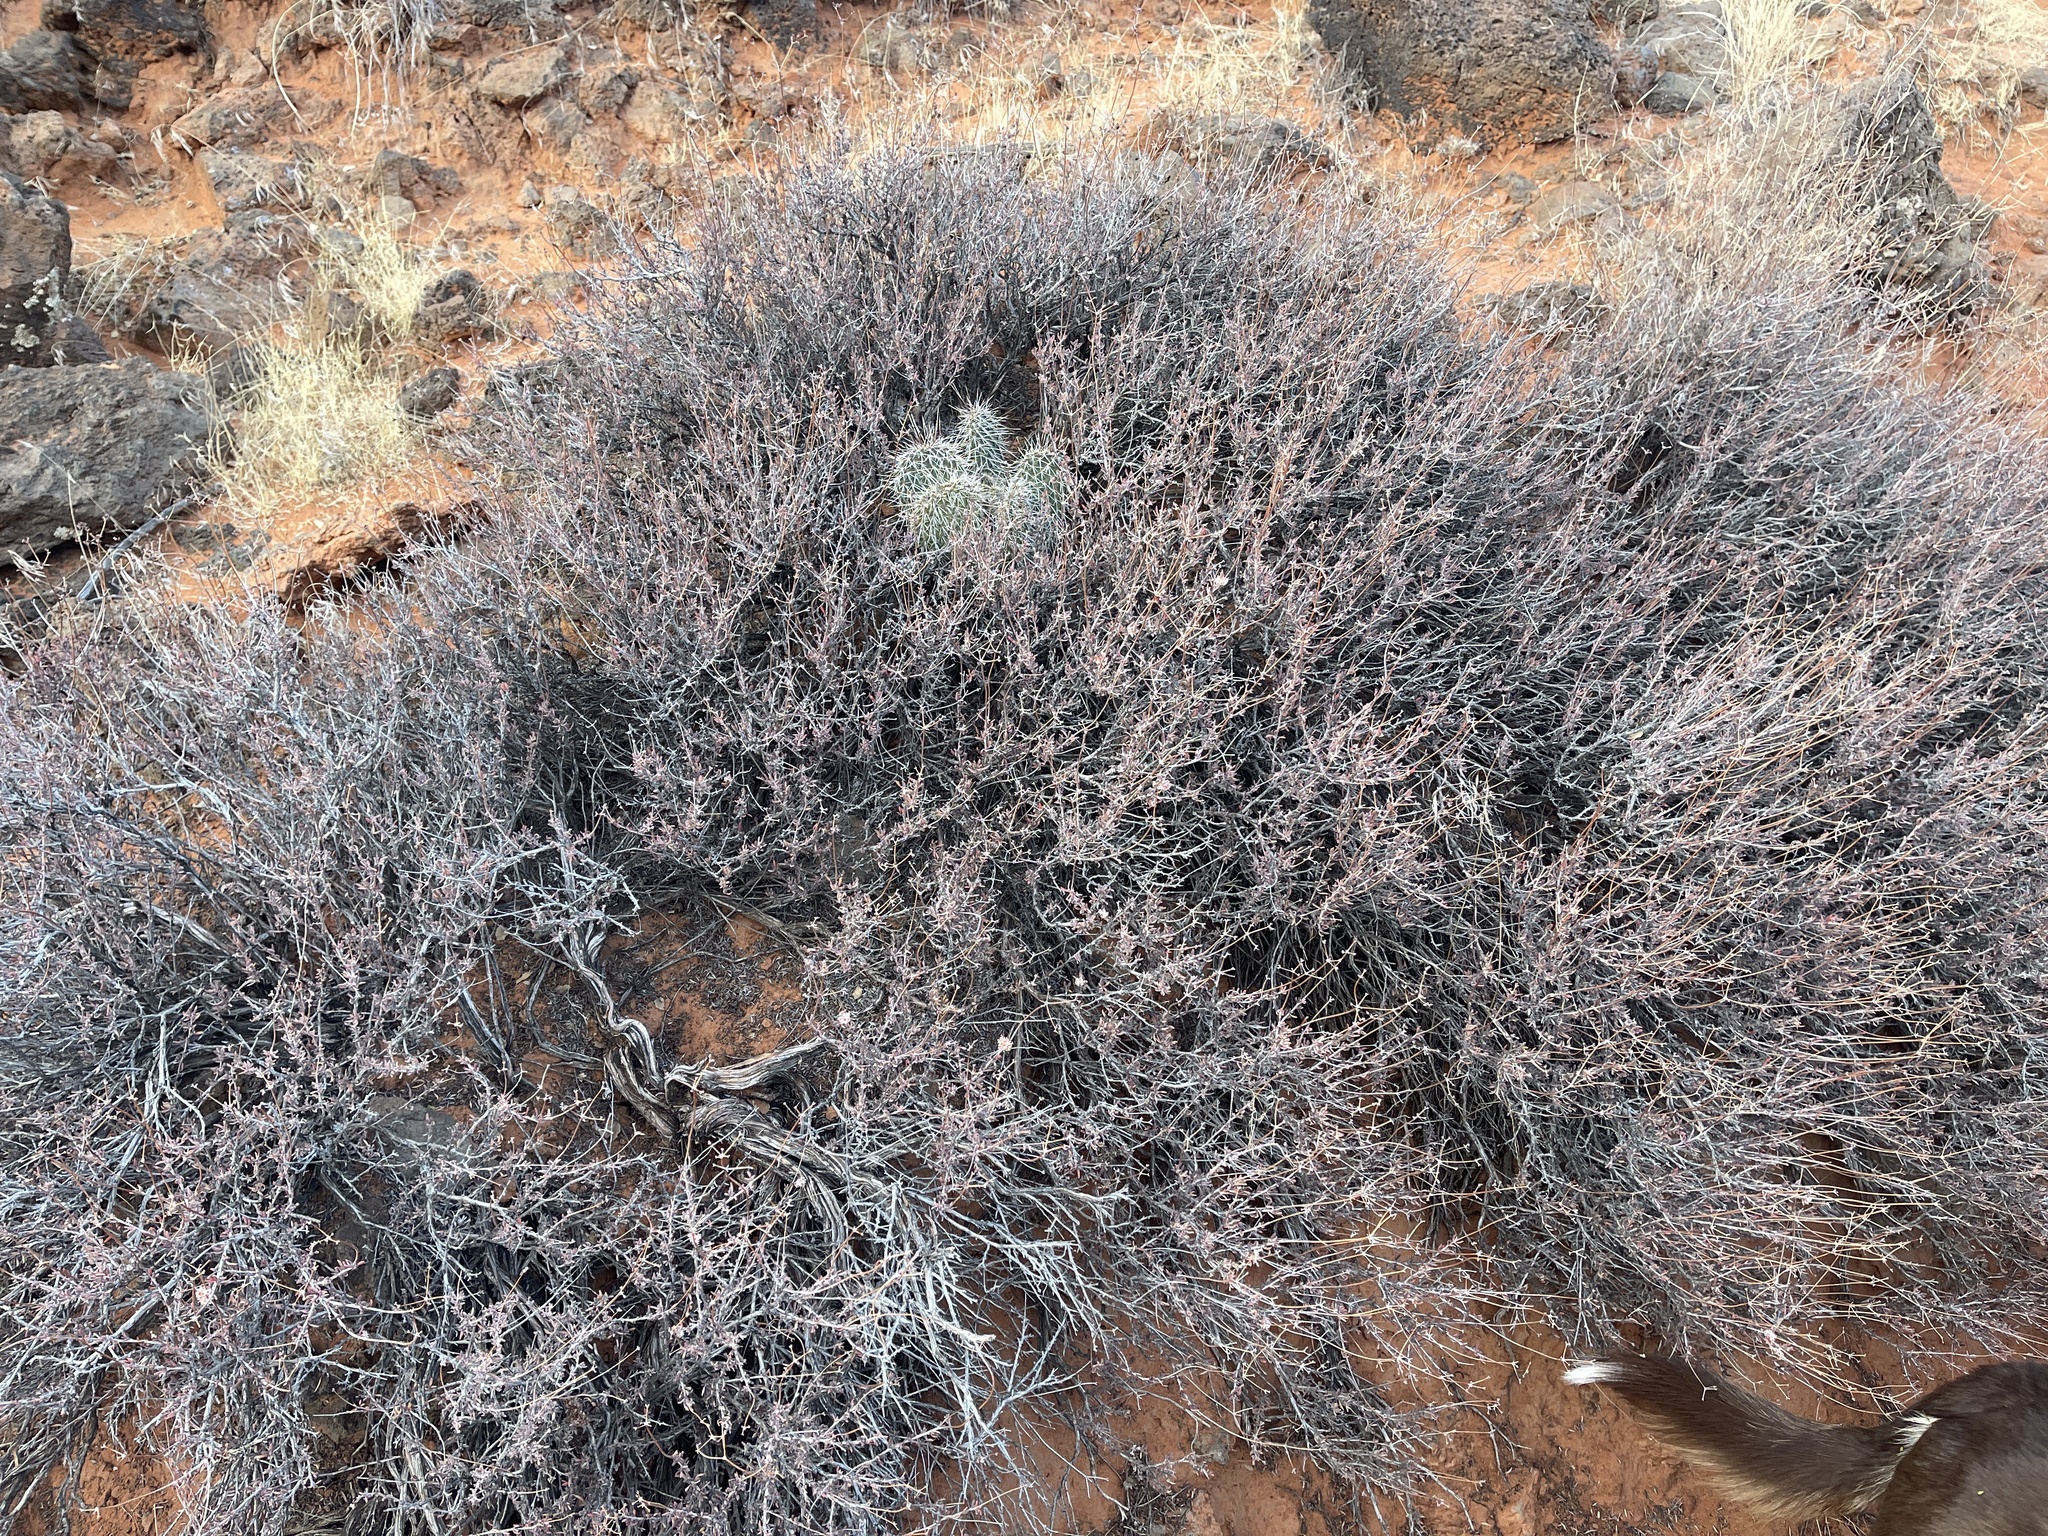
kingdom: Plantae
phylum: Tracheophyta
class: Magnoliopsida
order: Caryophyllales
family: Polygonaceae
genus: Eriogonum
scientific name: Eriogonum fasciculatum
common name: California wild buckwheat
